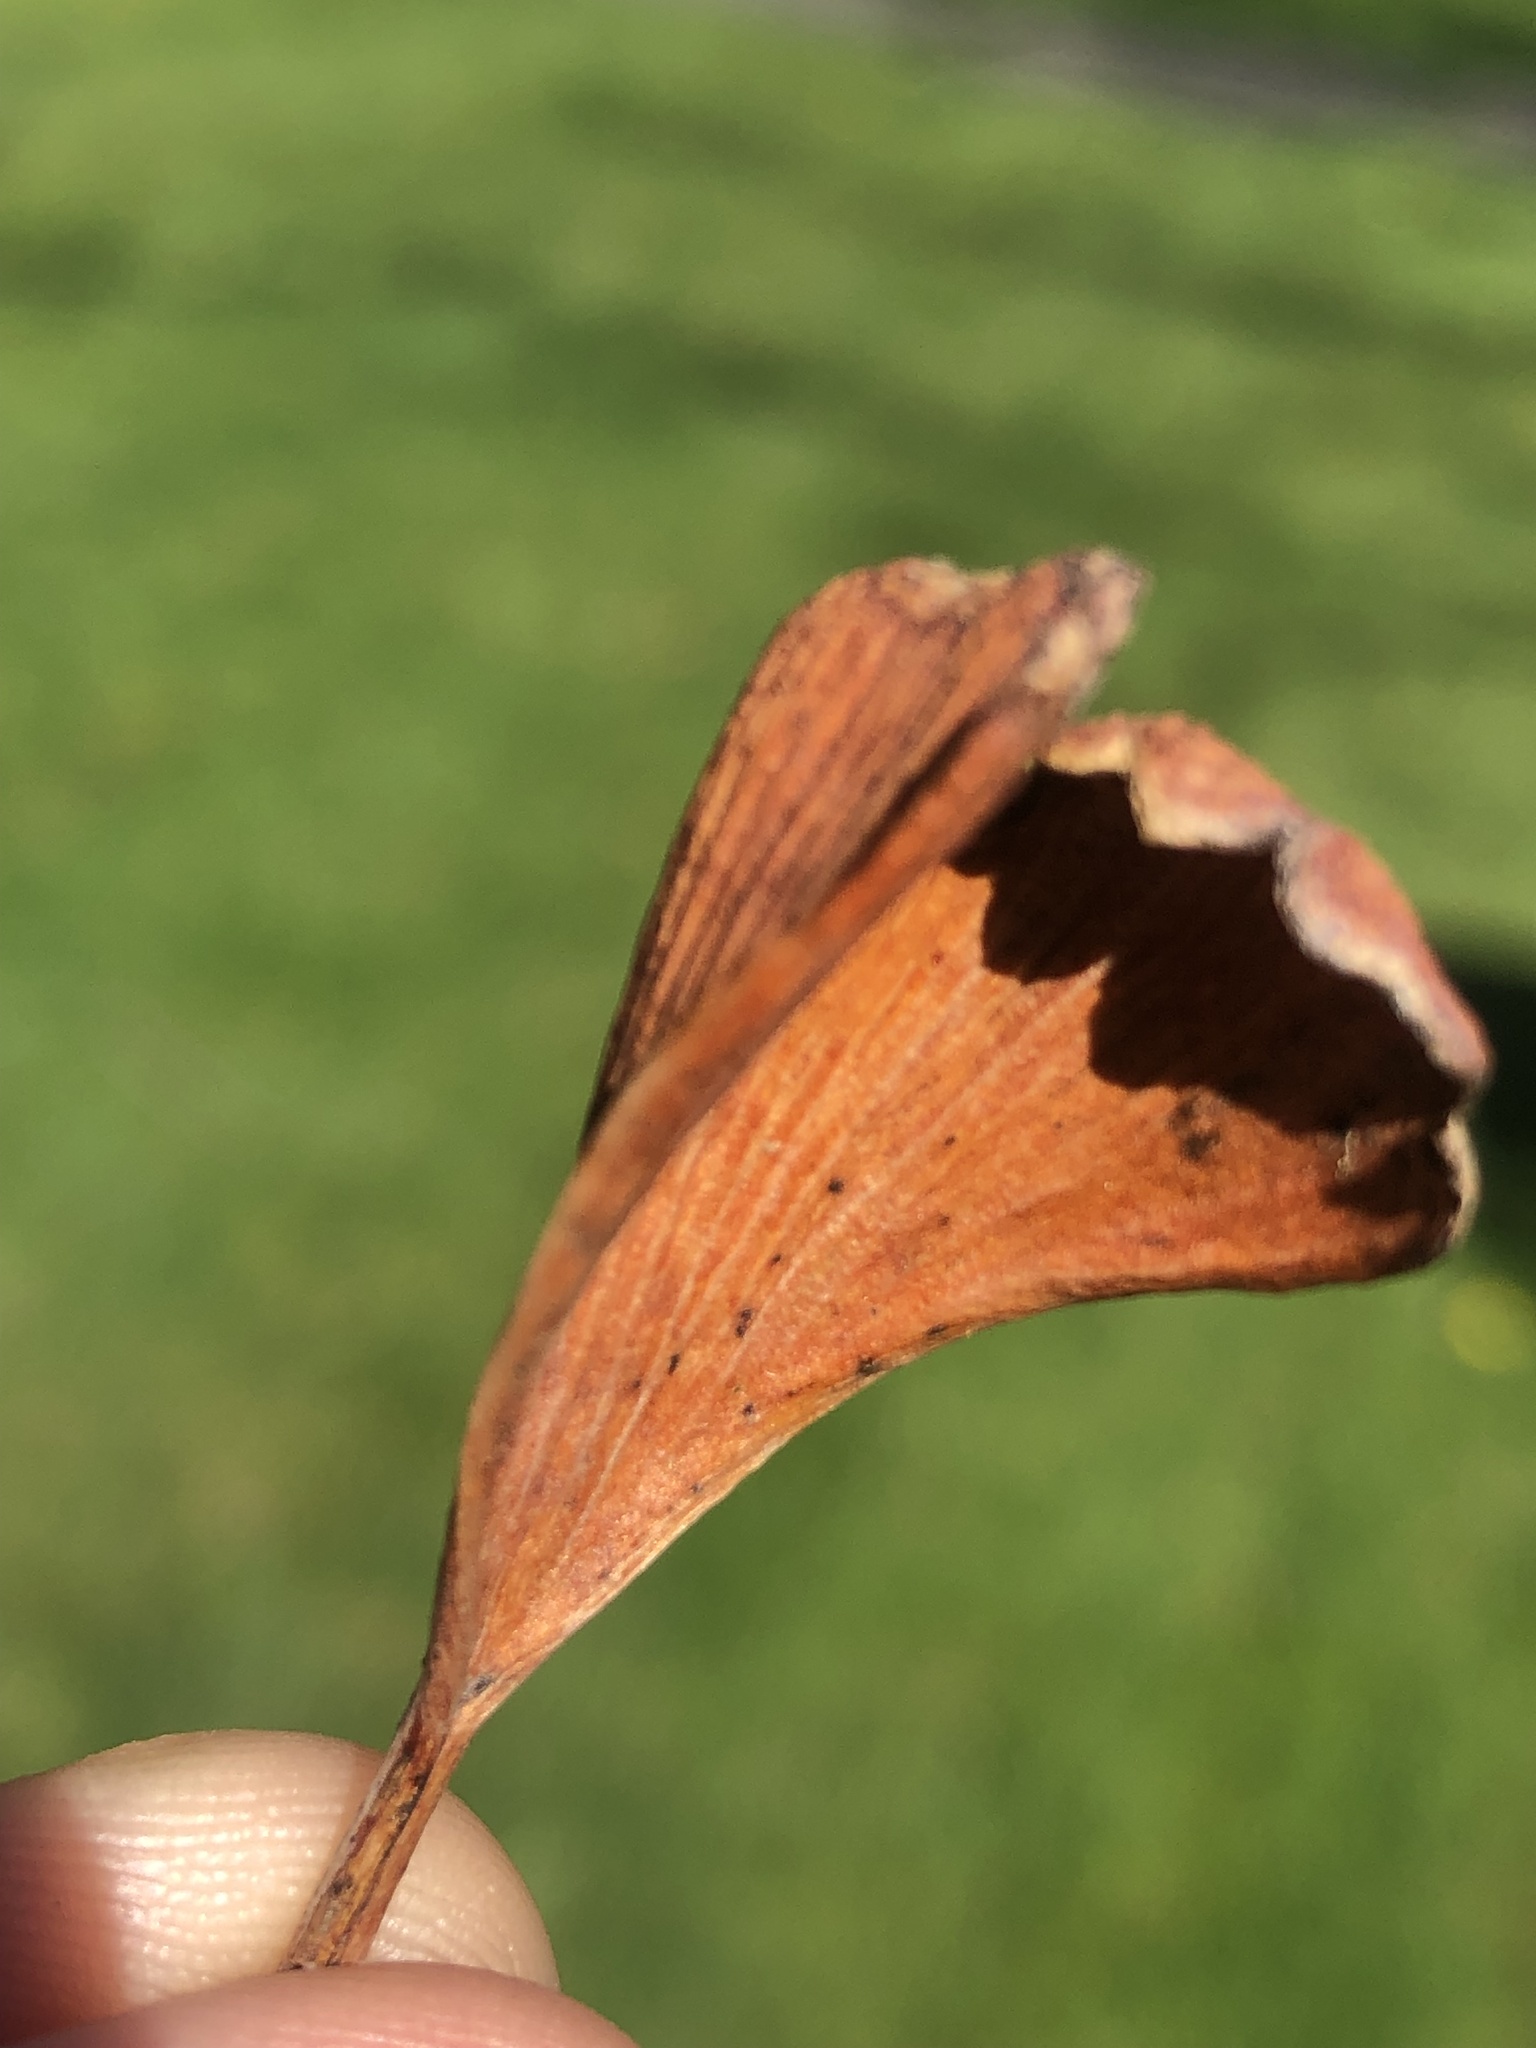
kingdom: Fungi
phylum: Basidiomycota
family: Bartheletiaceae
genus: Bartheletia
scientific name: Bartheletia paradoxa
